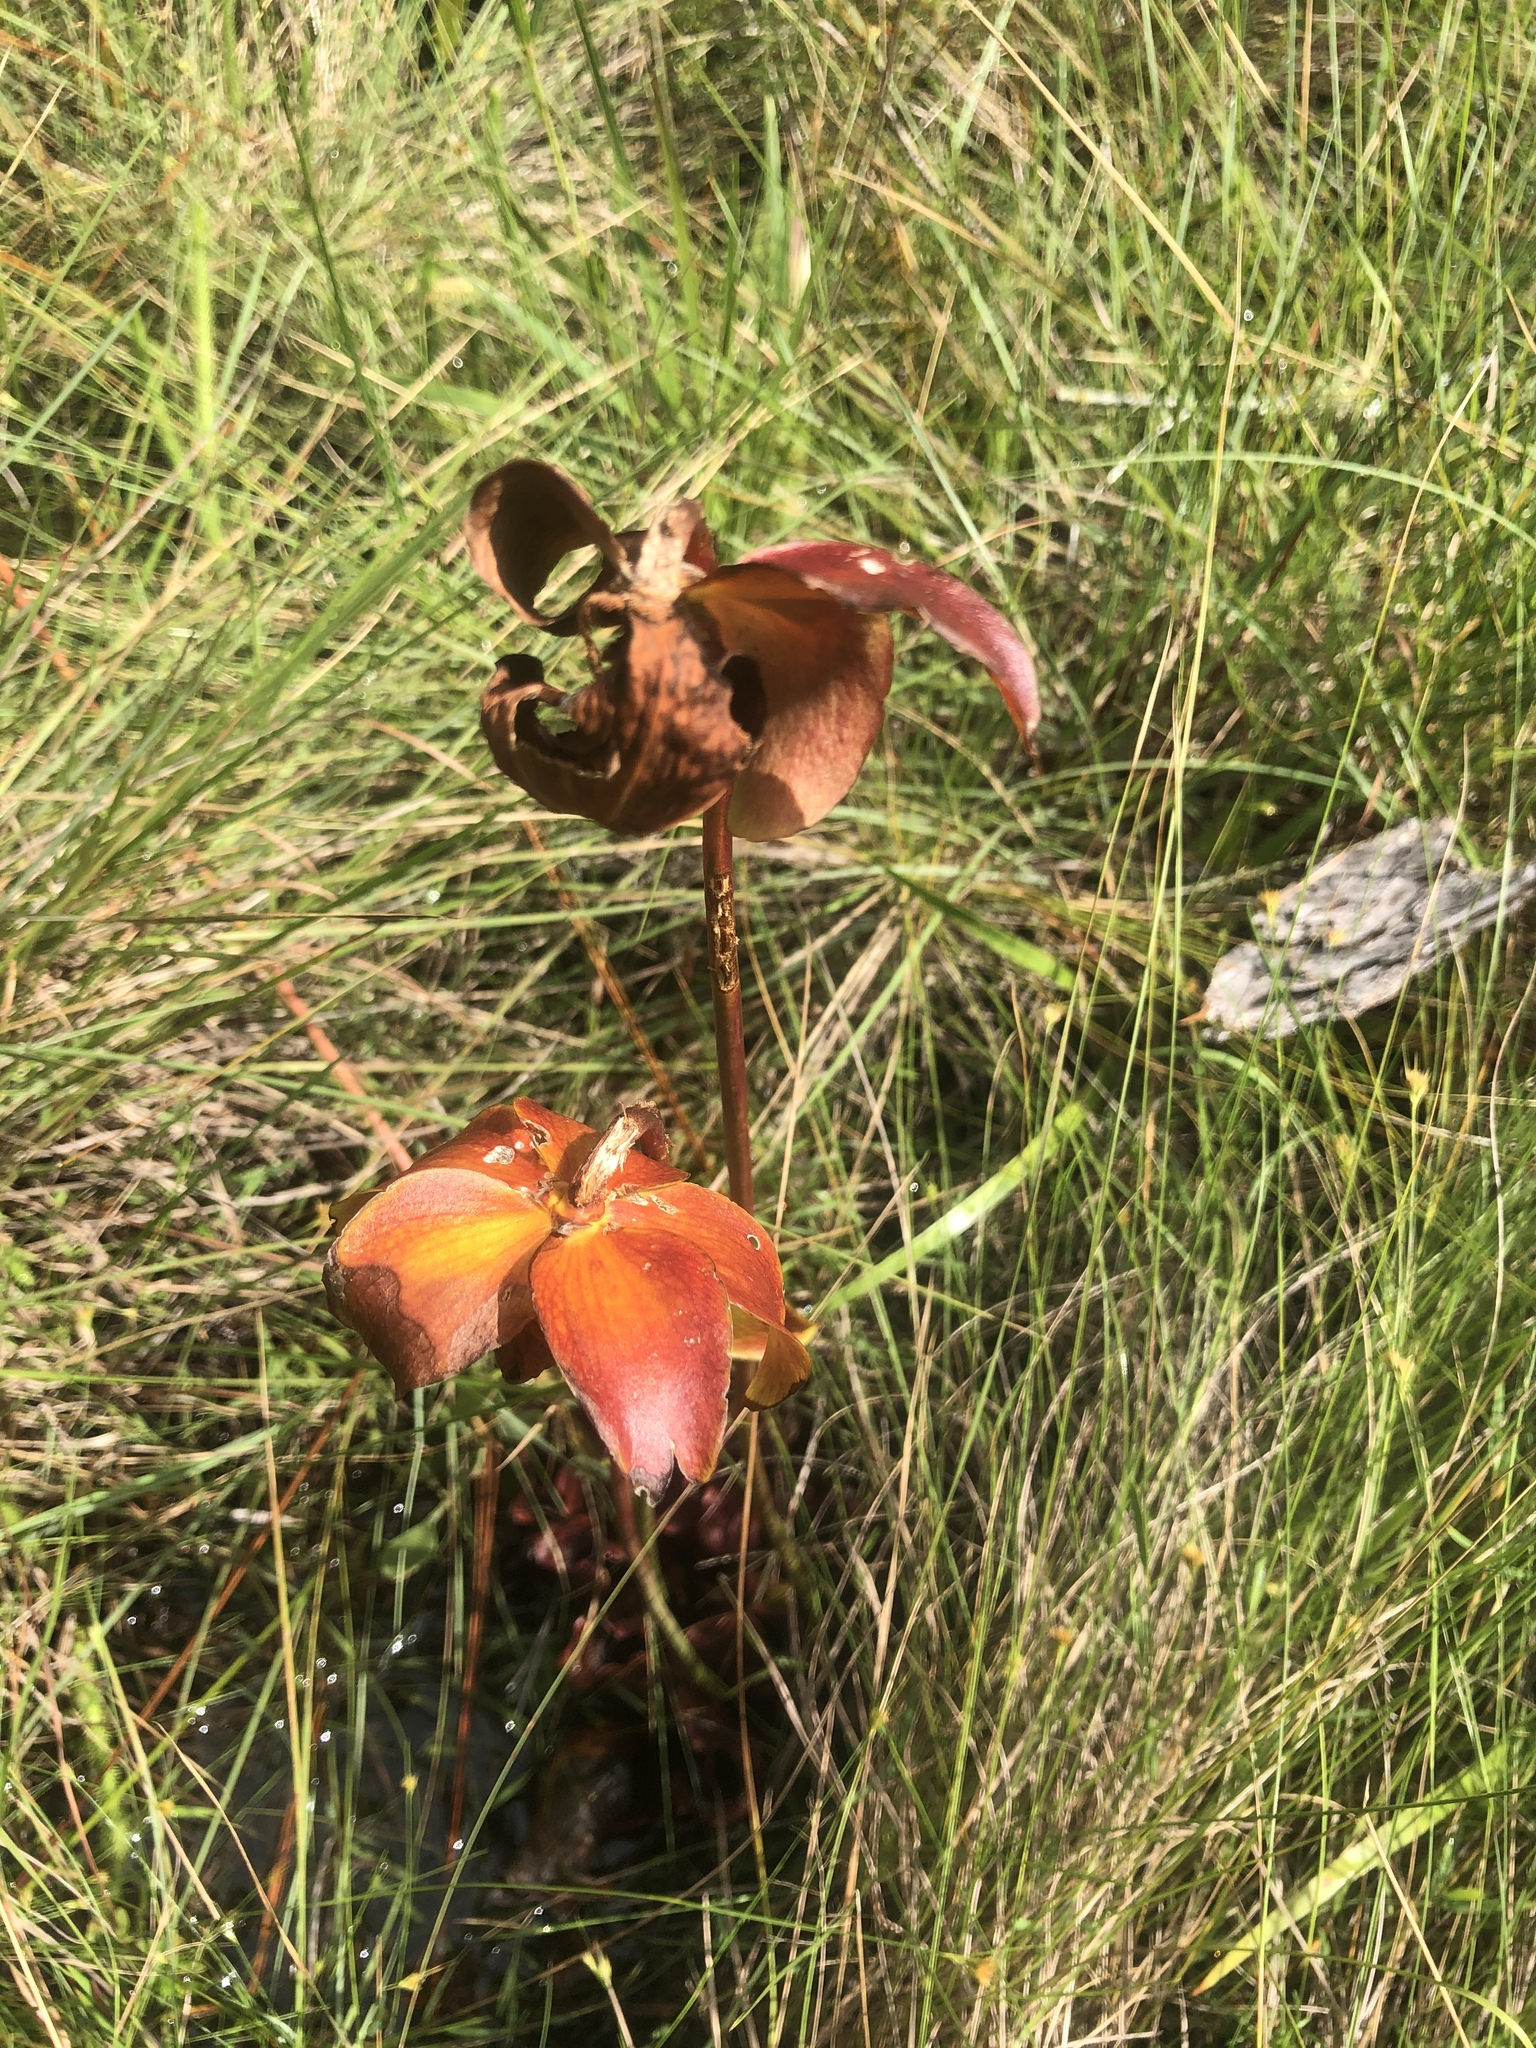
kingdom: Plantae
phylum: Tracheophyta
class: Magnoliopsida
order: Ericales
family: Sarraceniaceae
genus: Sarracenia
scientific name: Sarracenia purpurea
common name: Pitcherplant
